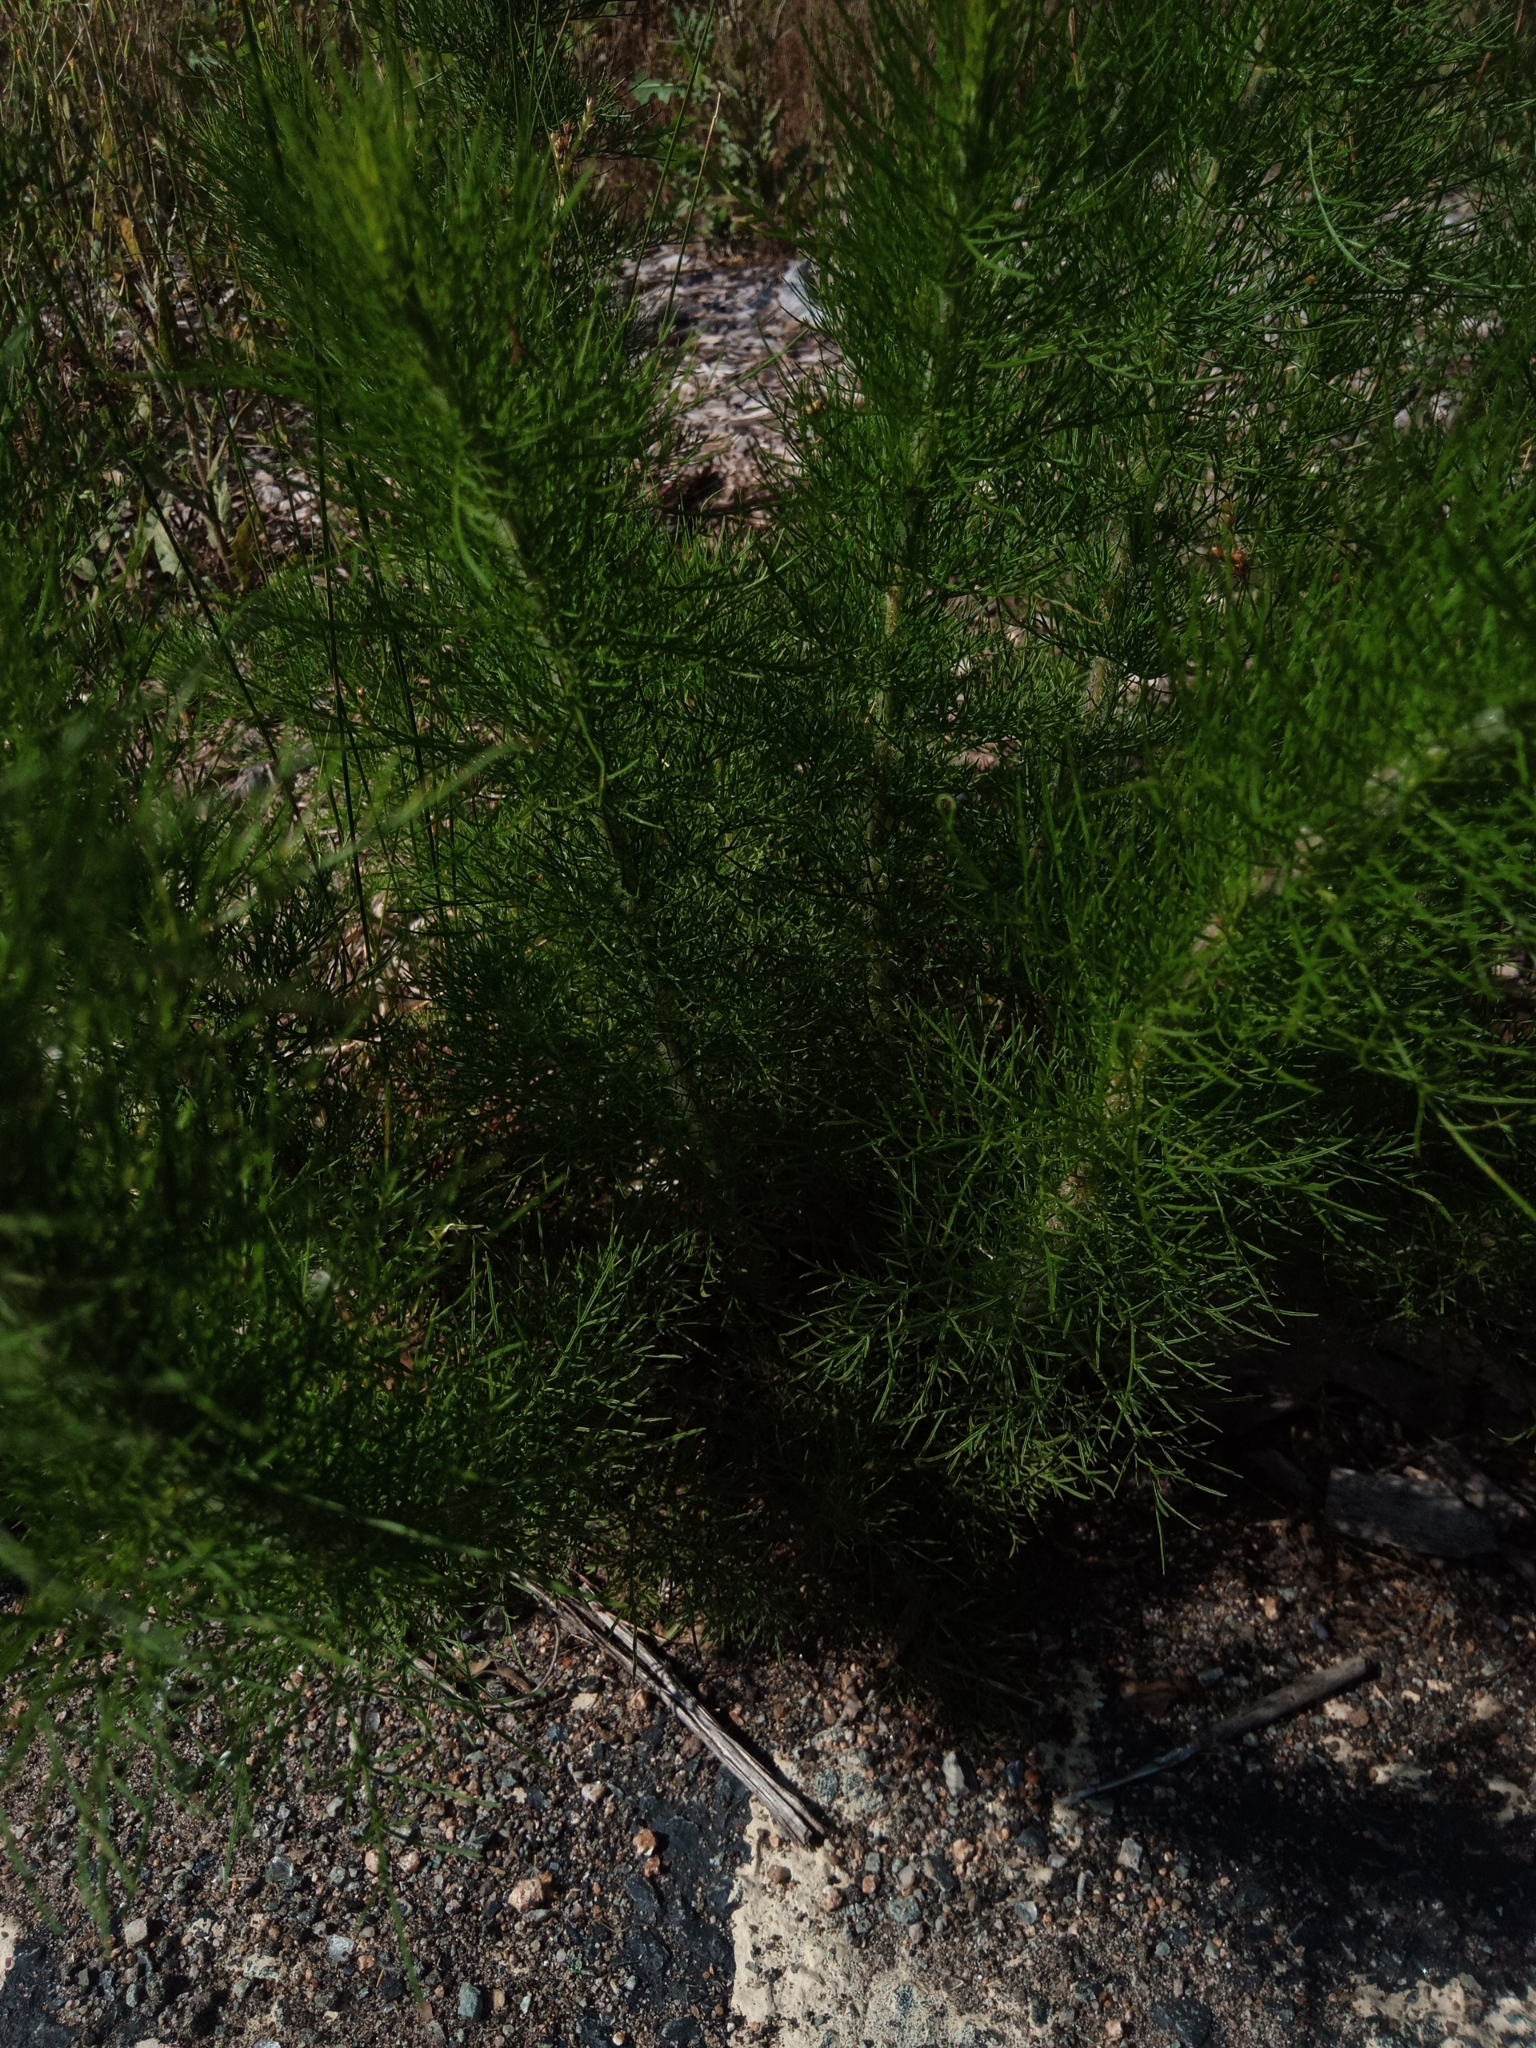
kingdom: Plantae
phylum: Tracheophyta
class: Magnoliopsida
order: Asterales
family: Asteraceae
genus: Eupatorium
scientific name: Eupatorium capillifolium
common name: Dog-fennel
